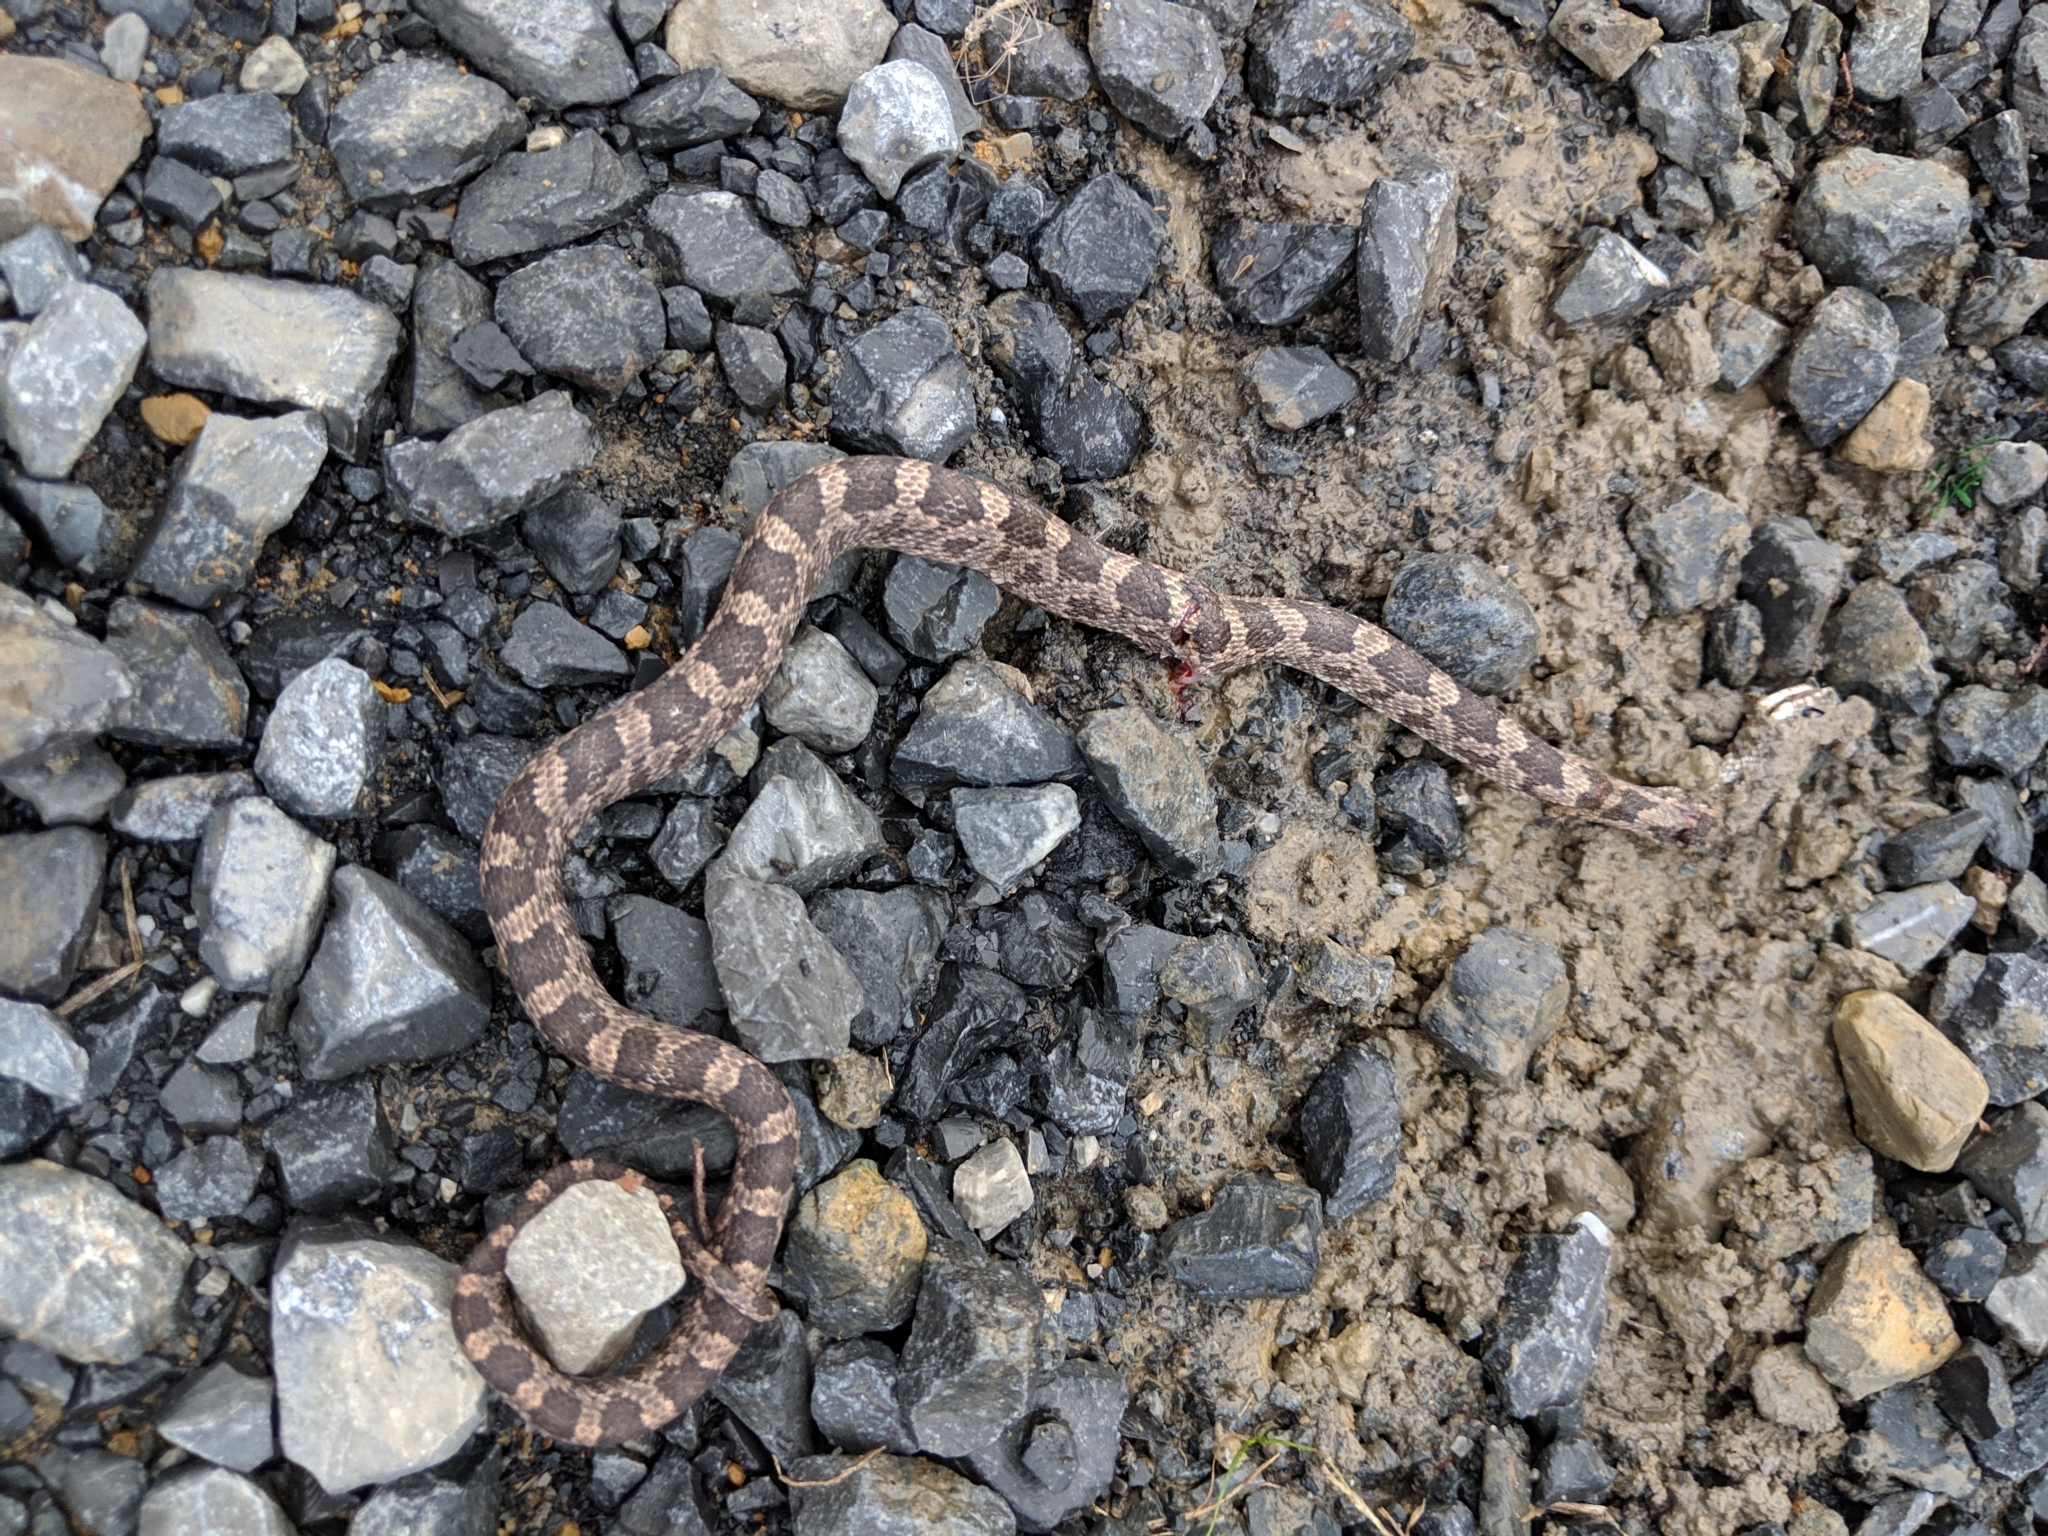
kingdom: Animalia
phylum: Chordata
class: Squamata
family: Colubridae
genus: Pantherophis
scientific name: Pantherophis alleghaniensis
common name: Eastern rat snake
